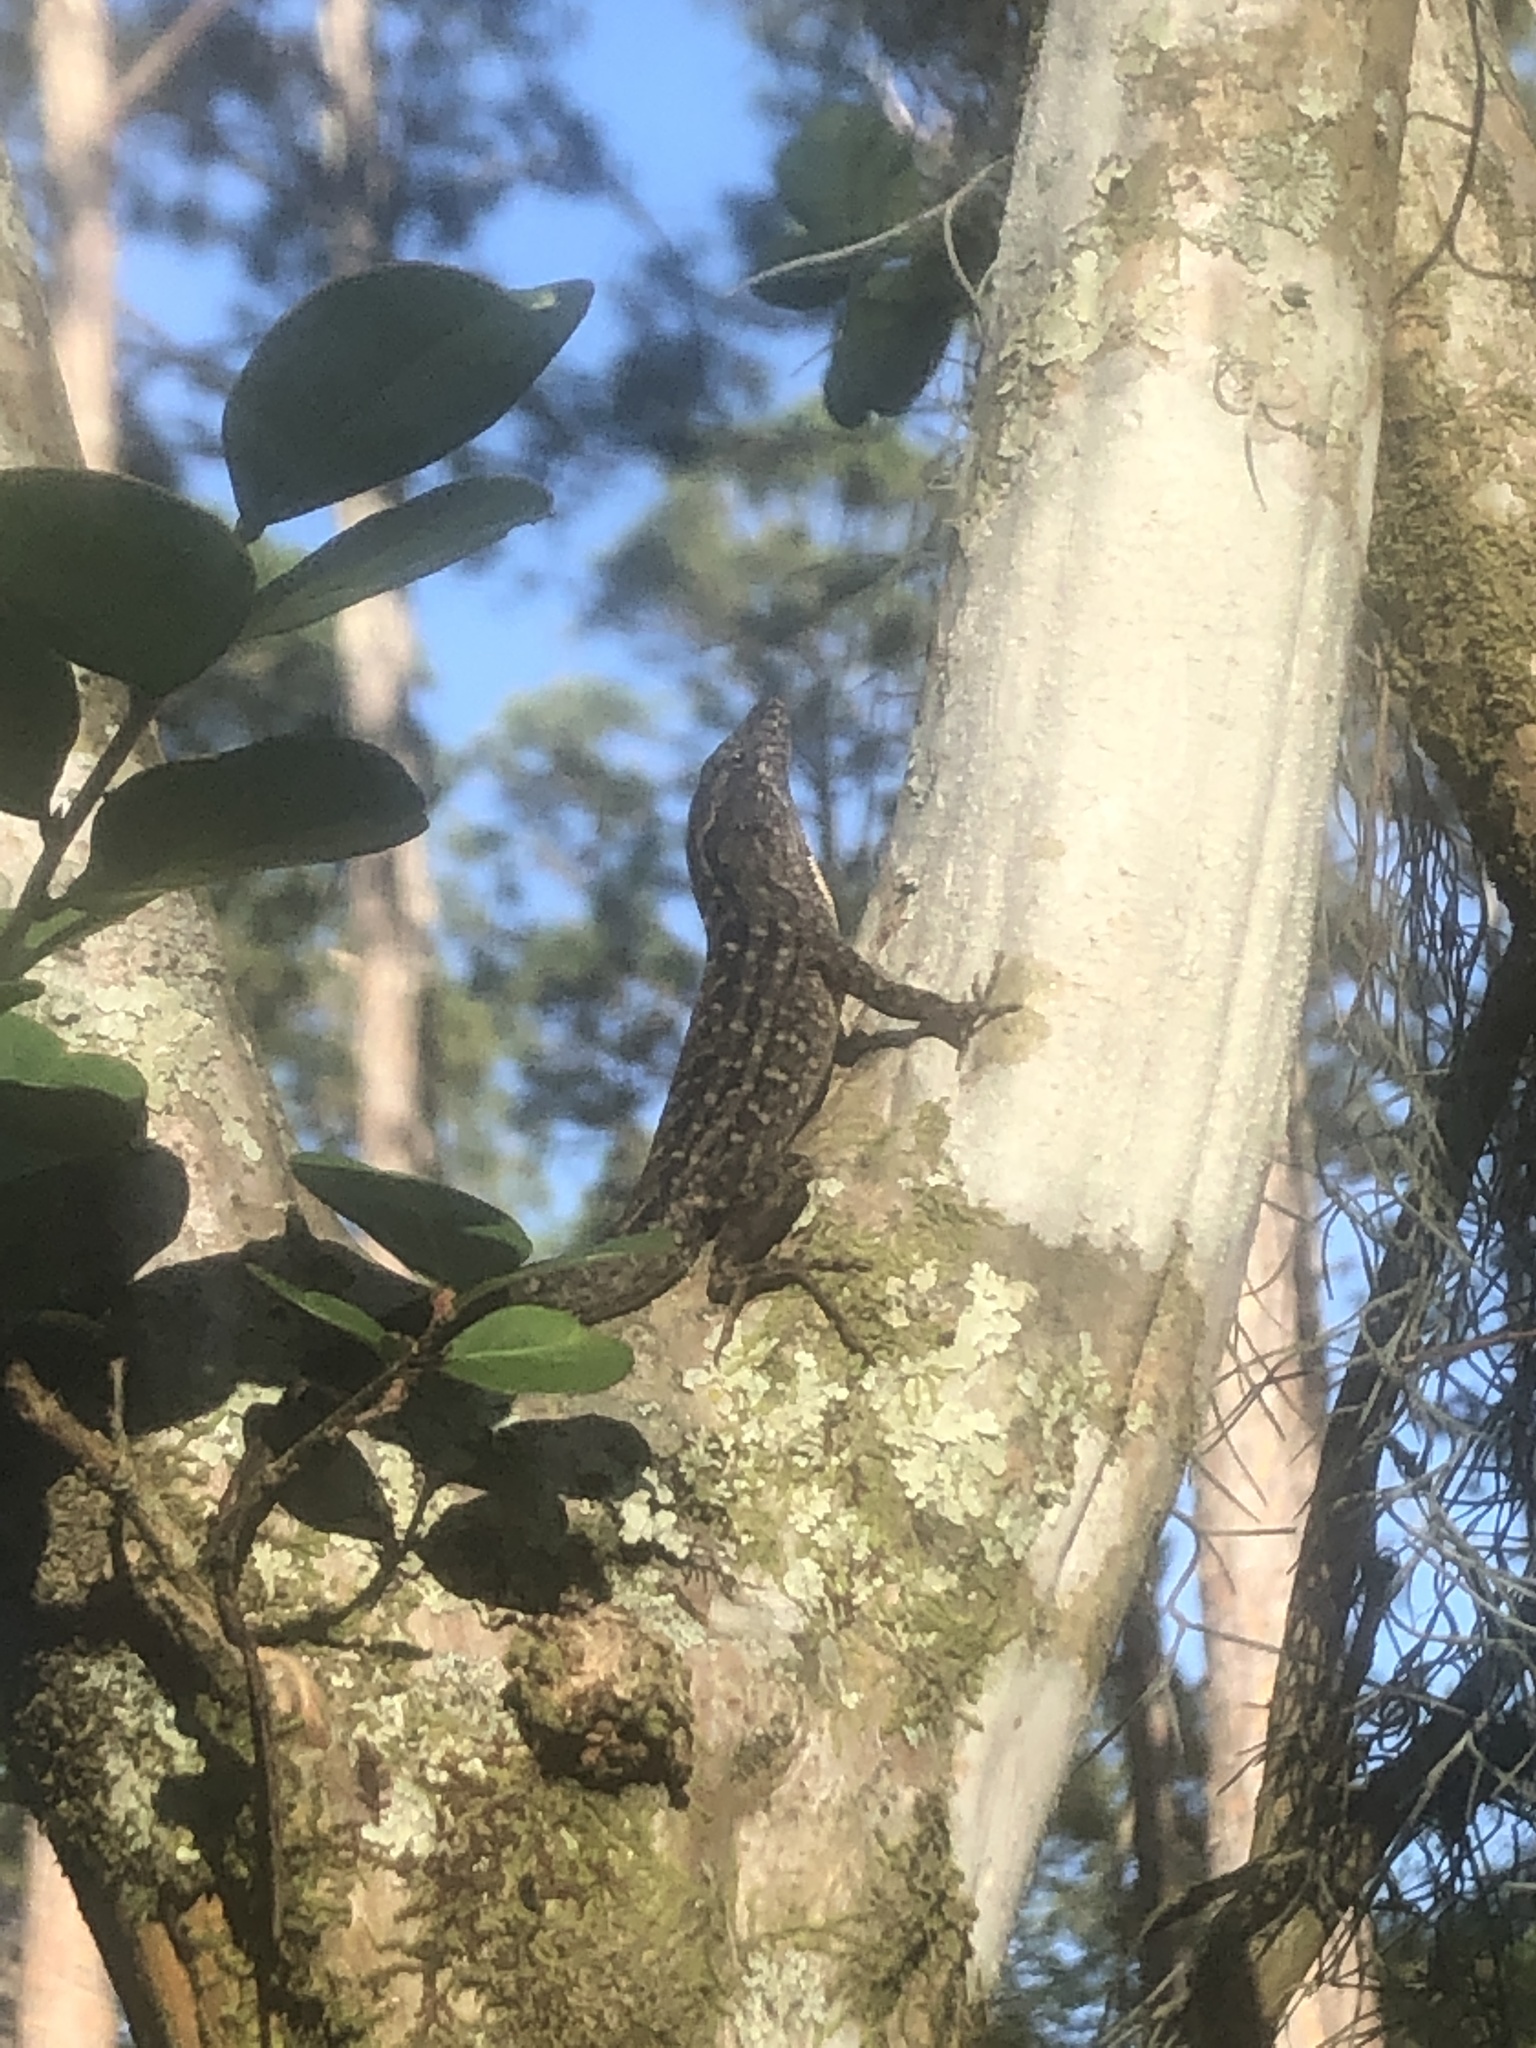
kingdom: Animalia
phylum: Chordata
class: Squamata
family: Dactyloidae
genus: Anolis
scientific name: Anolis sagrei
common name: Brown anole
